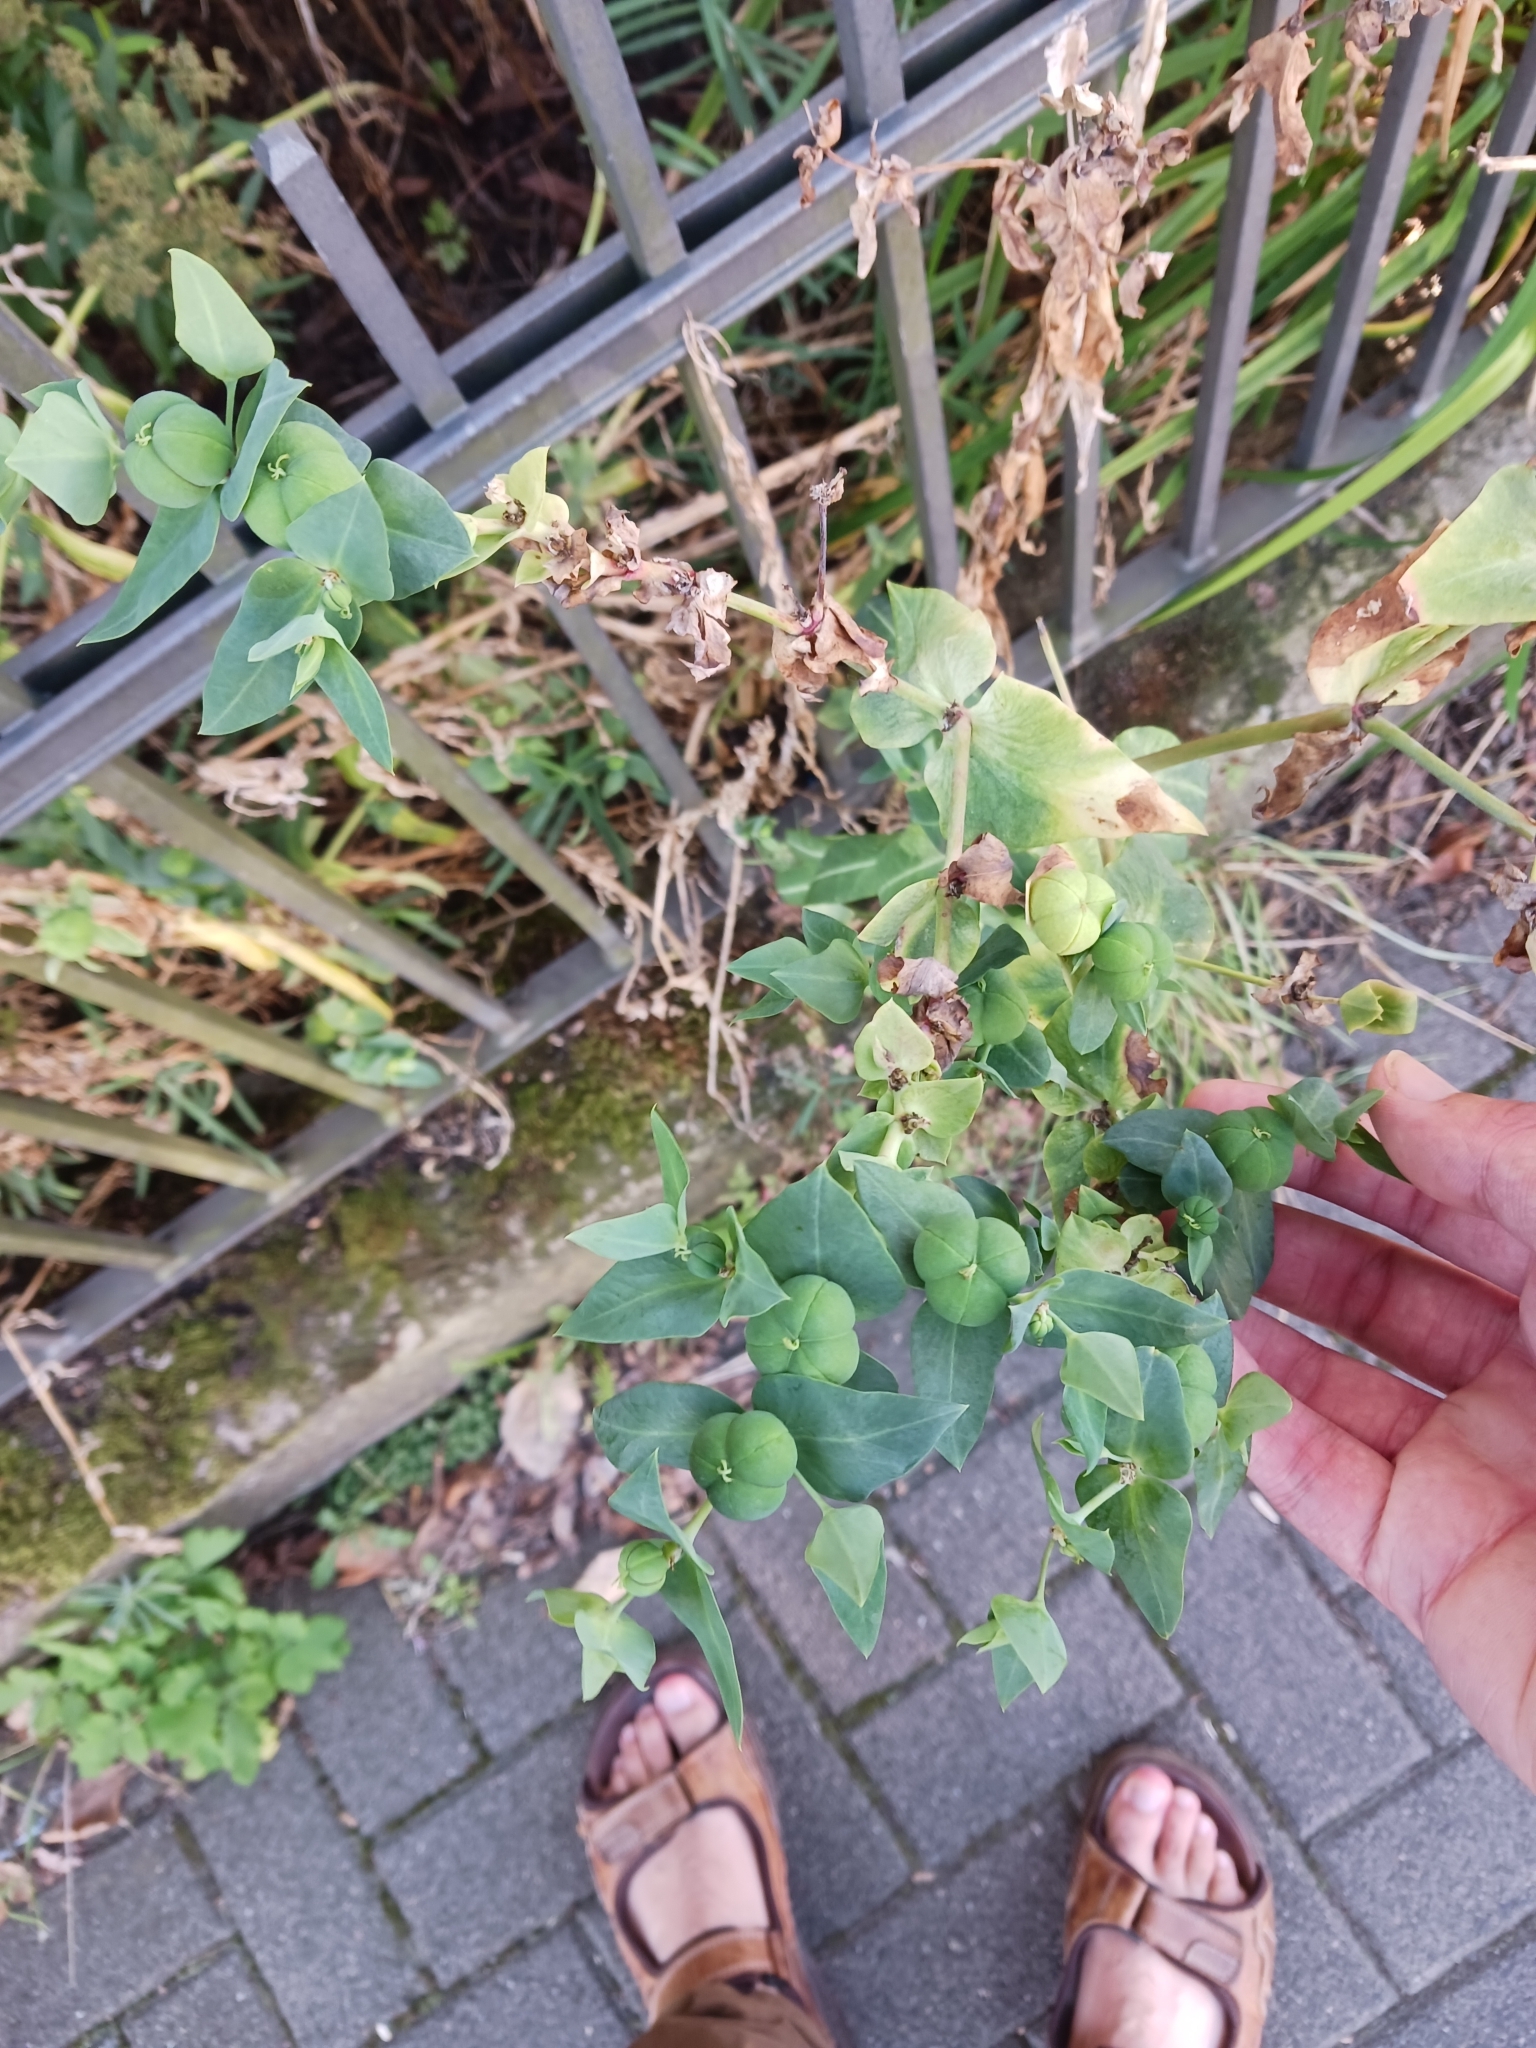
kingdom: Plantae
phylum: Tracheophyta
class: Magnoliopsida
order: Malpighiales
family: Euphorbiaceae
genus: Euphorbia
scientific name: Euphorbia lathyris
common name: Caper spurge
